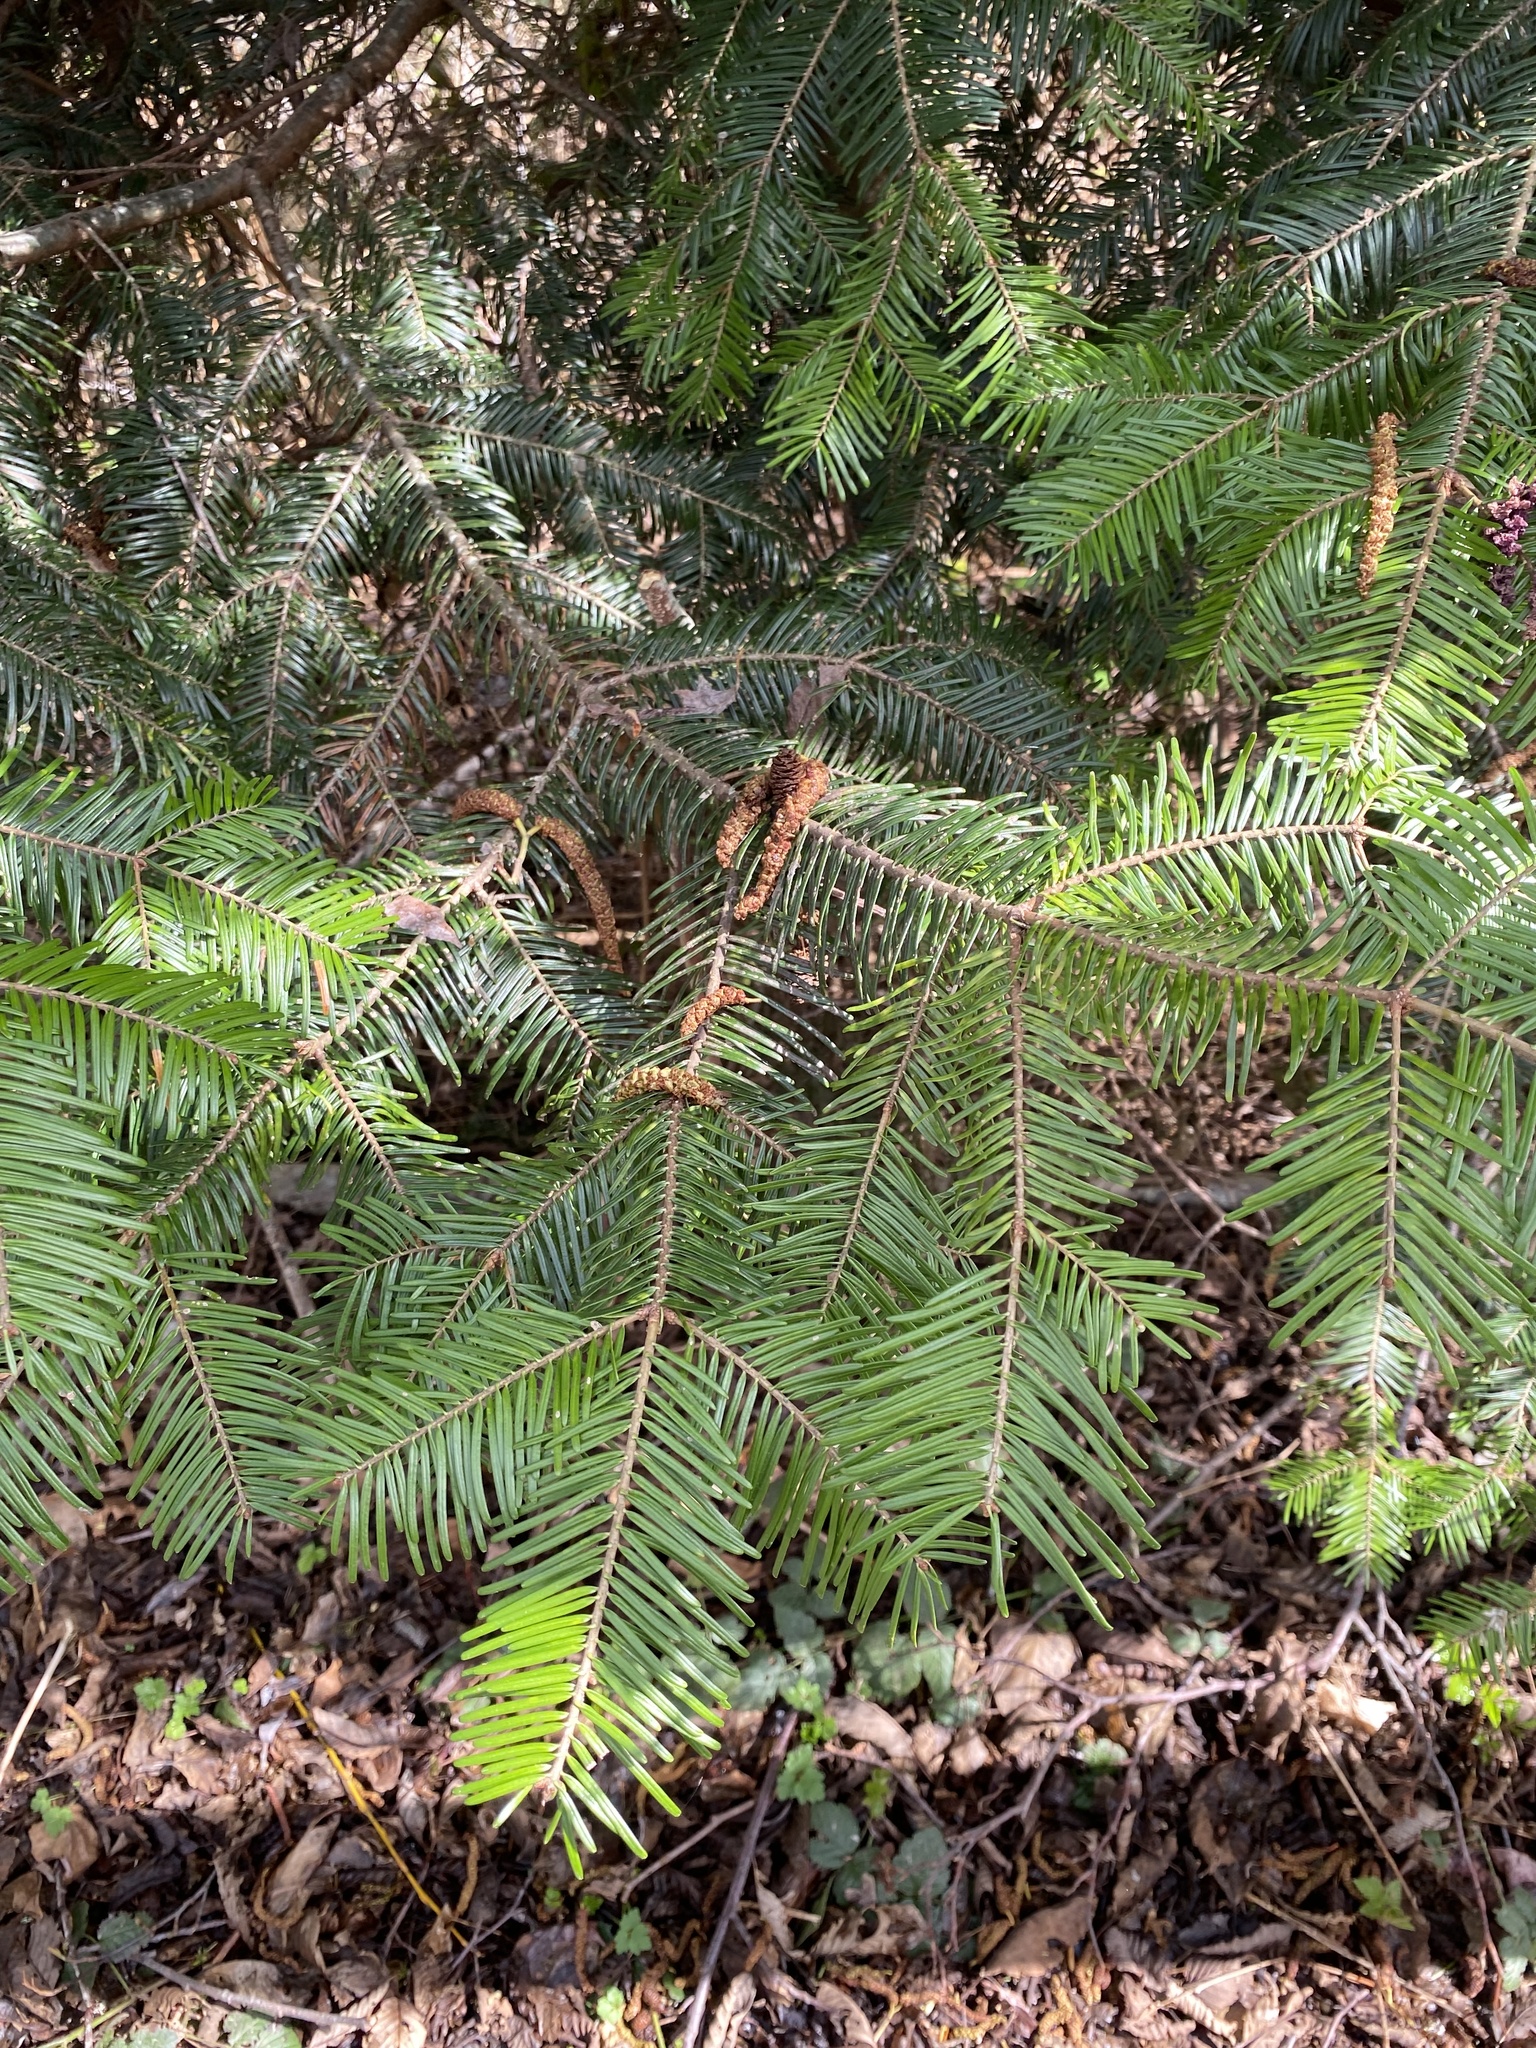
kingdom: Plantae
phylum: Tracheophyta
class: Pinopsida
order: Pinales
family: Pinaceae
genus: Abies
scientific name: Abies grandis
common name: Giant fir
